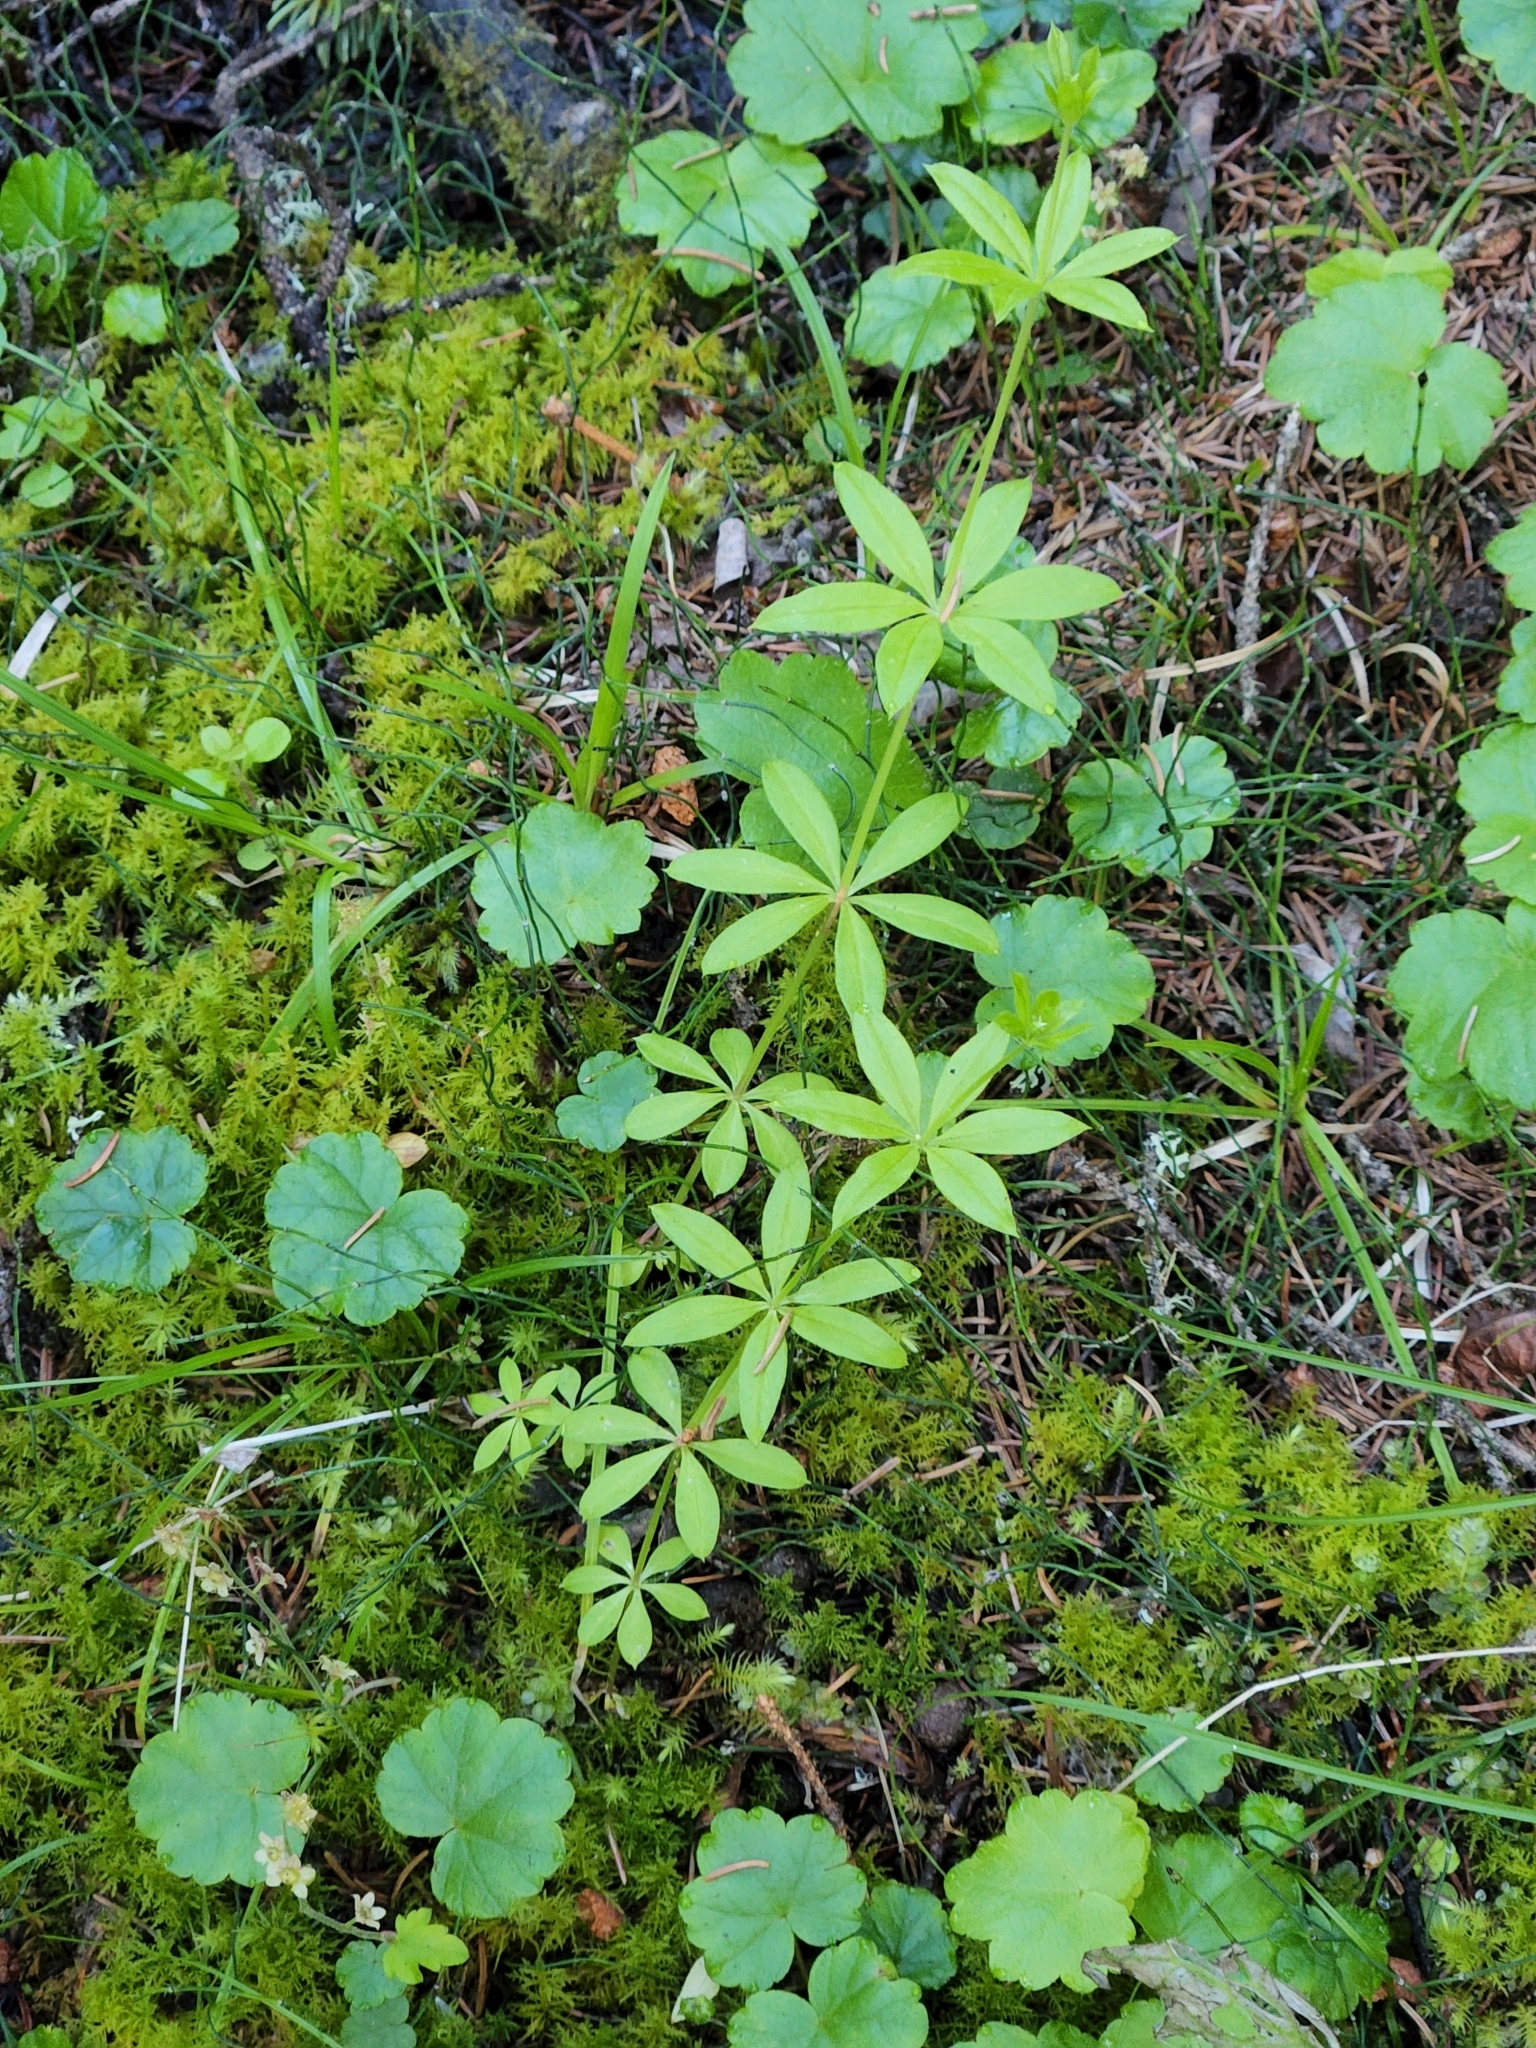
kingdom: Plantae
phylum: Tracheophyta
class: Magnoliopsida
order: Gentianales
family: Rubiaceae
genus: Galium
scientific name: Galium triflorum
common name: Fragrant bedstraw
